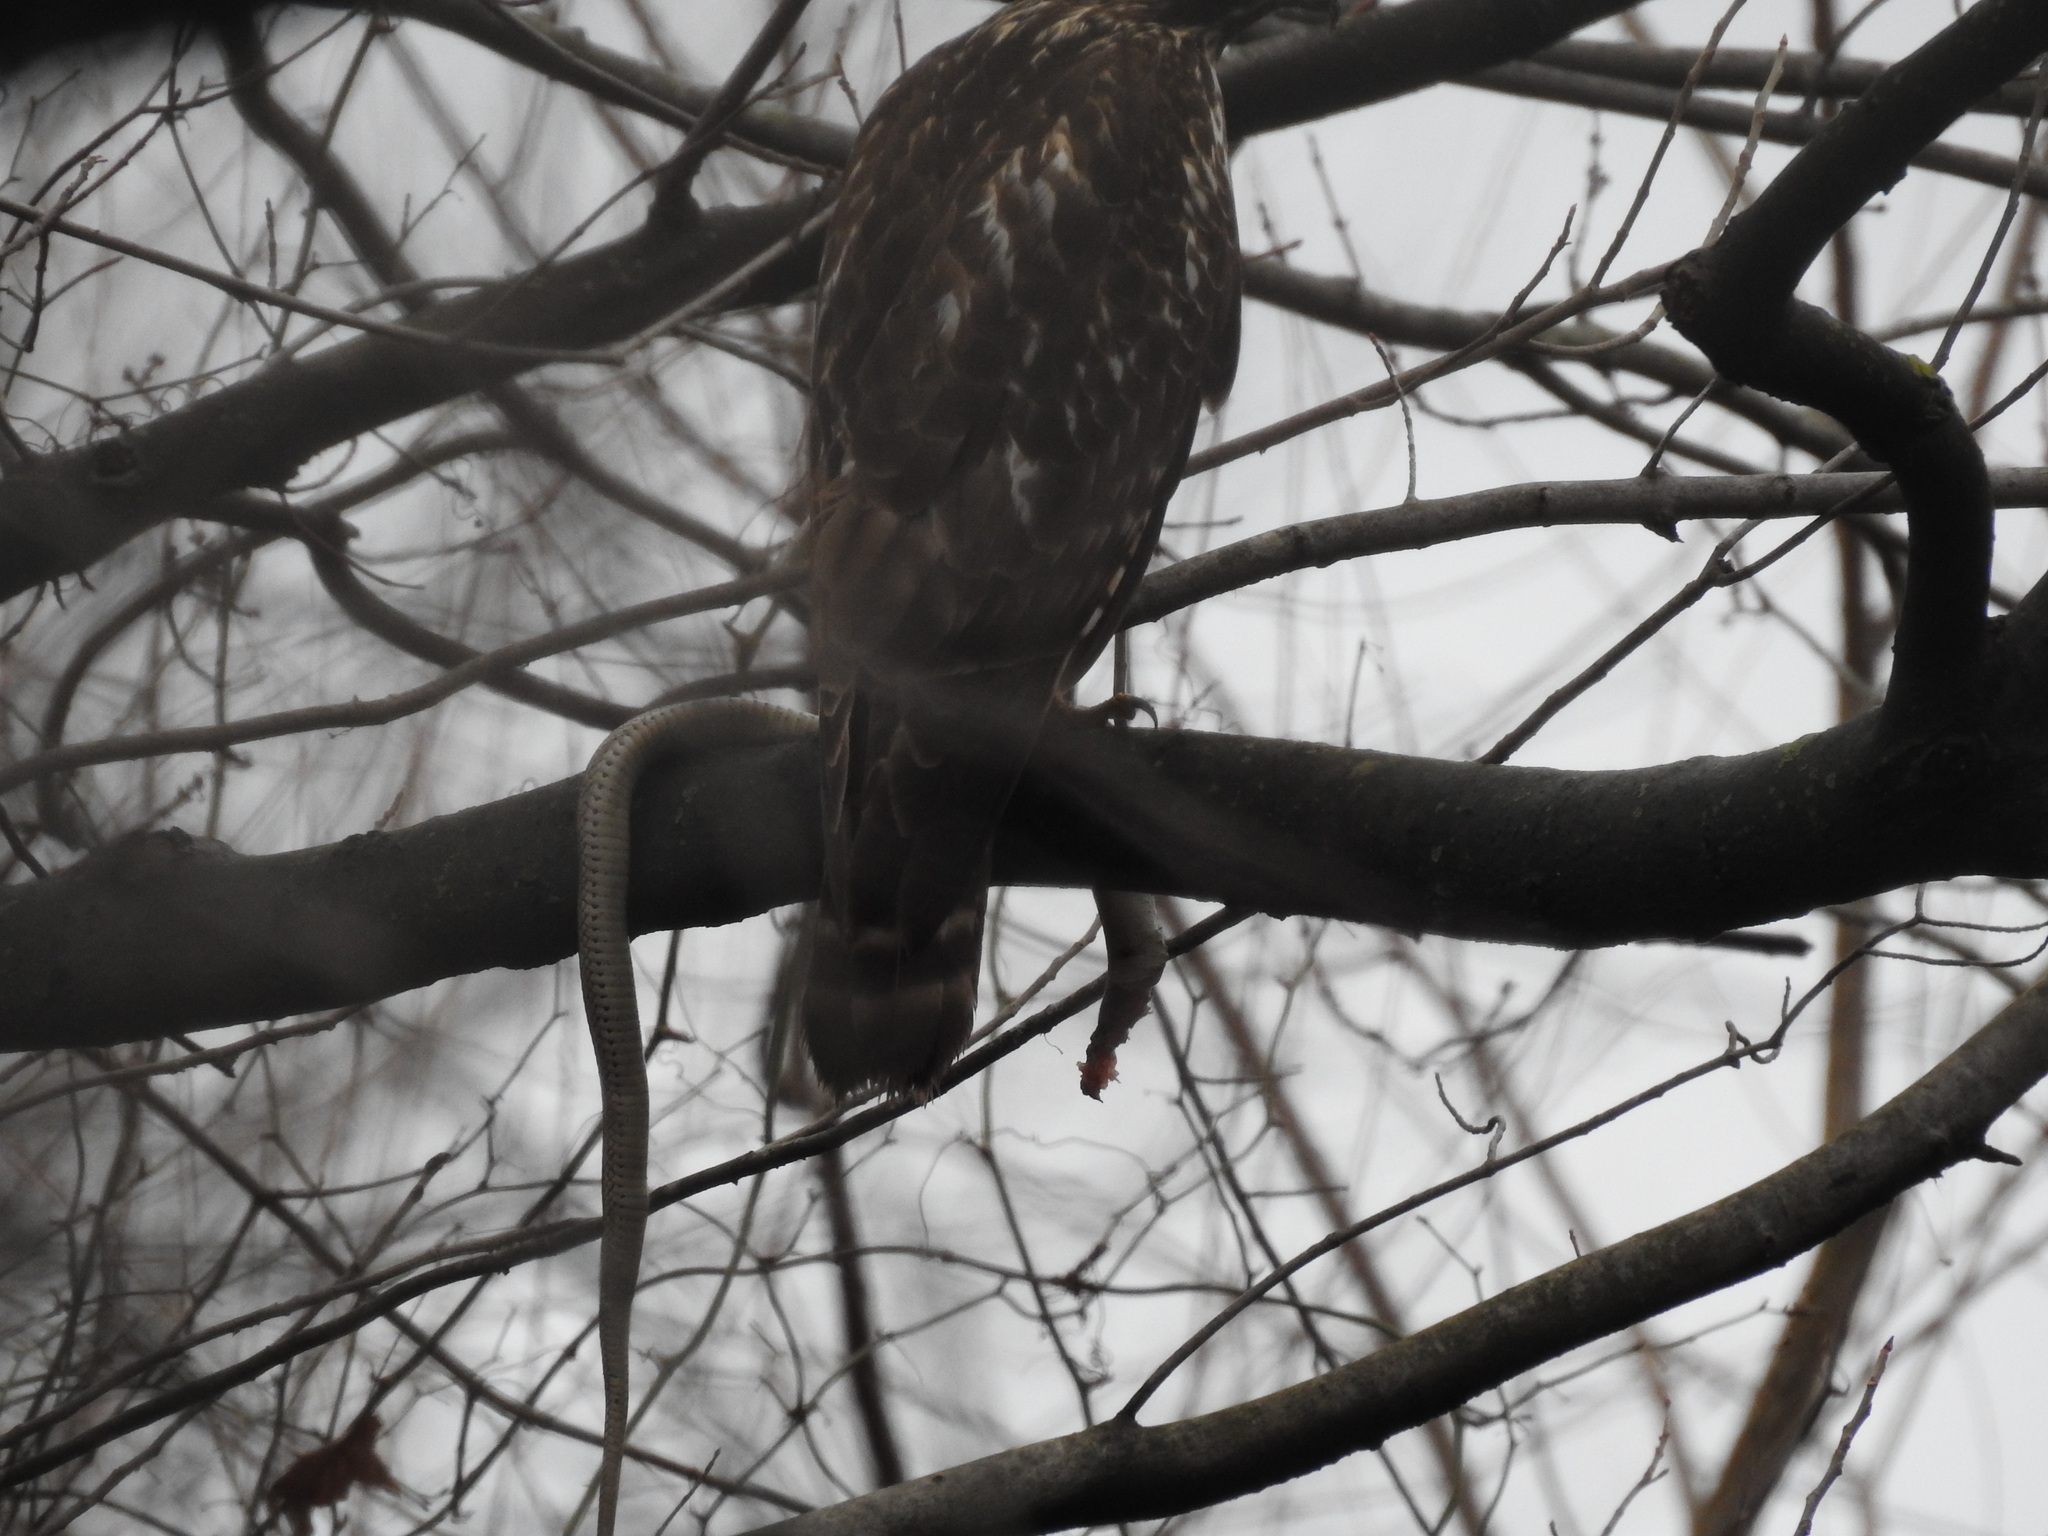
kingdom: Animalia
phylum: Chordata
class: Squamata
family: Colubridae
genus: Thamnophis
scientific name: Thamnophis sirtalis
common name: Common garter snake
